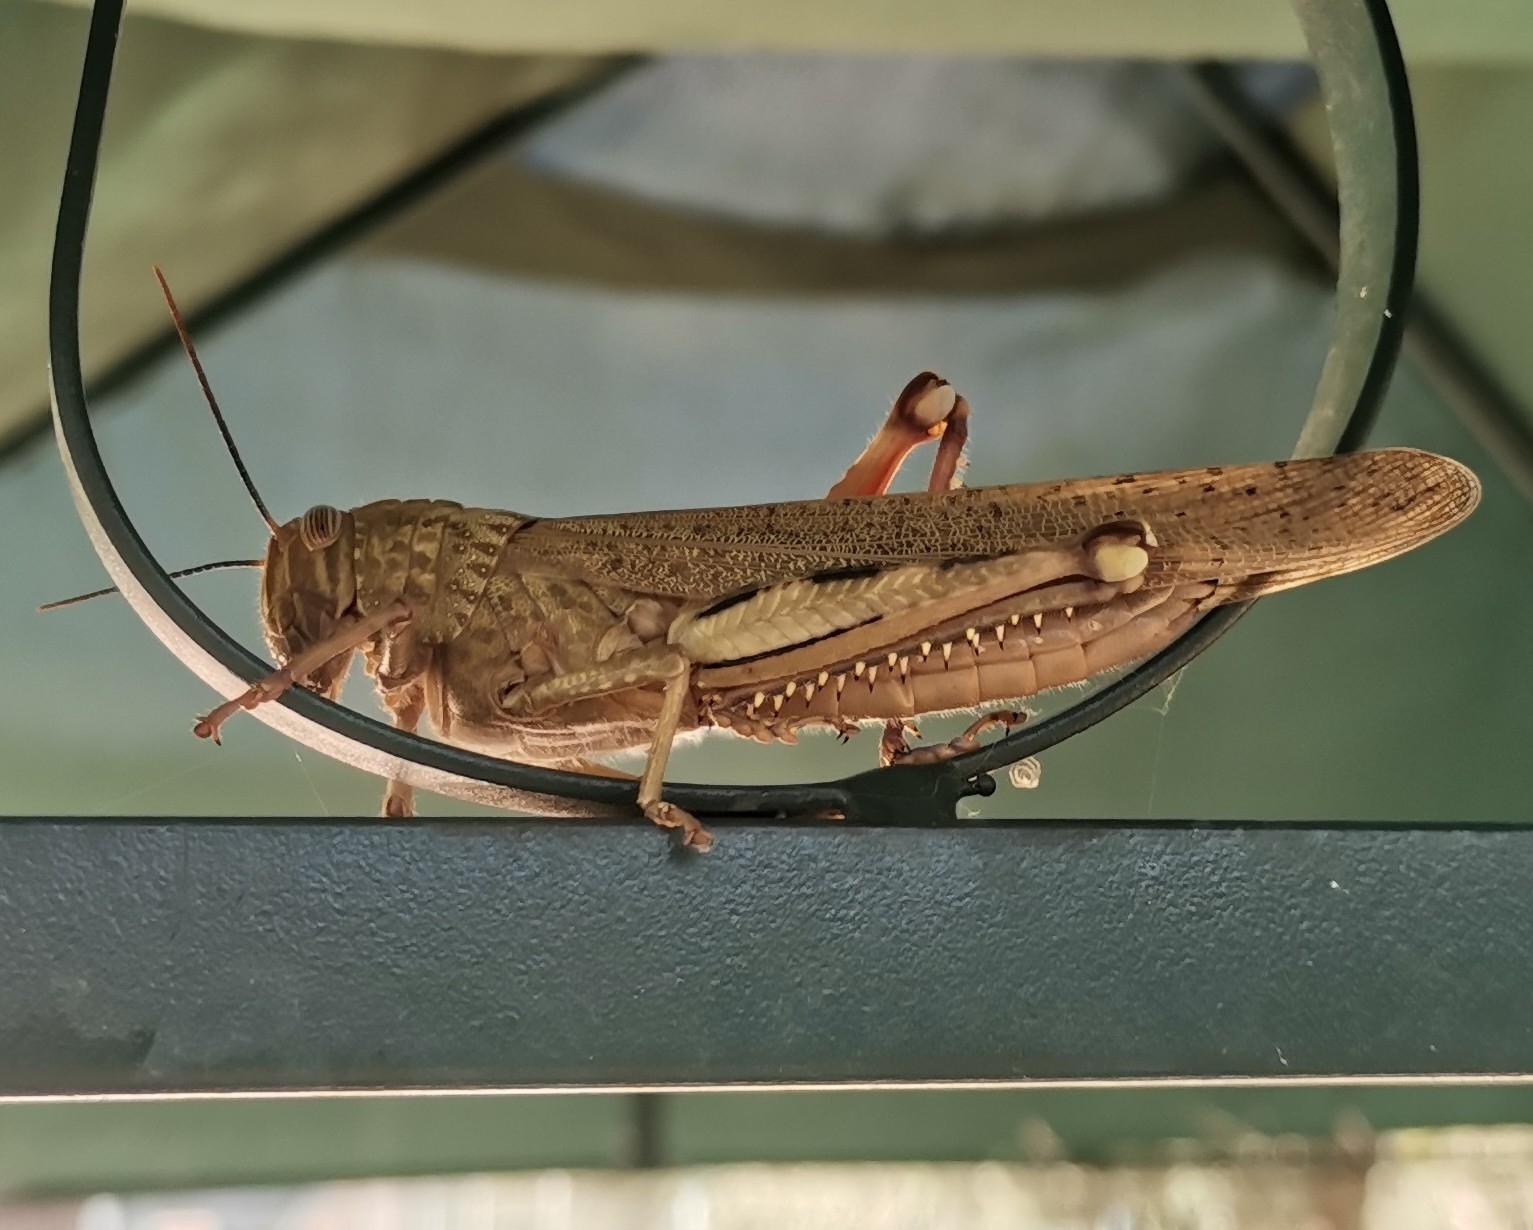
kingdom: Animalia
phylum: Arthropoda
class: Insecta
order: Orthoptera
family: Acrididae
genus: Anacridium
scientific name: Anacridium aegyptium
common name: Egyptian grasshopper
